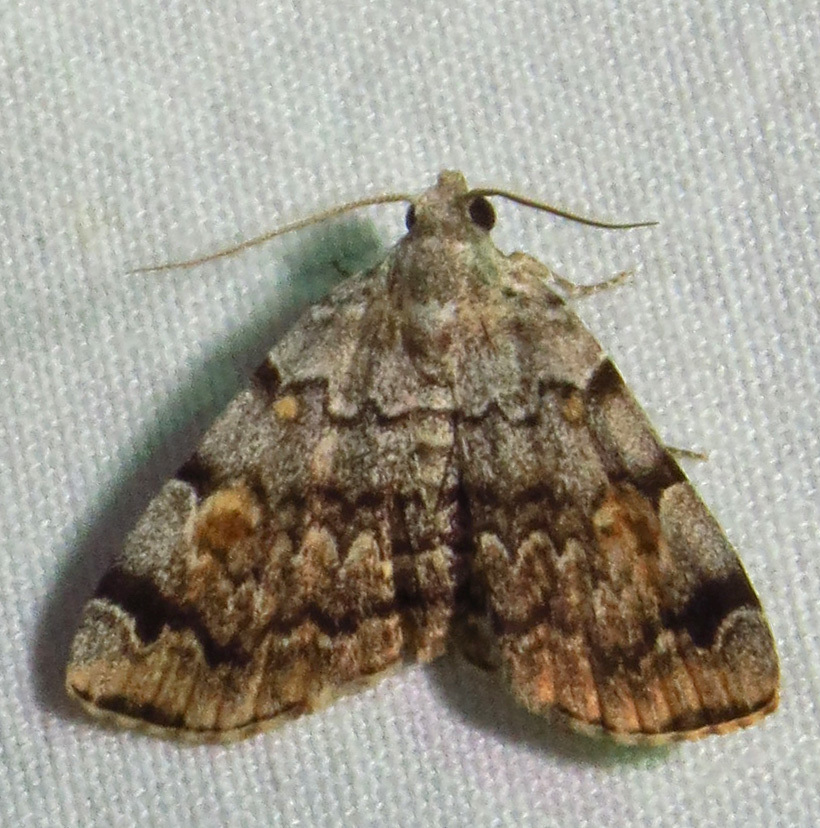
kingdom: Animalia
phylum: Arthropoda
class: Insecta
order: Lepidoptera
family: Erebidae
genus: Idia
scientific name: Idia americalis
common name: American idia moth
